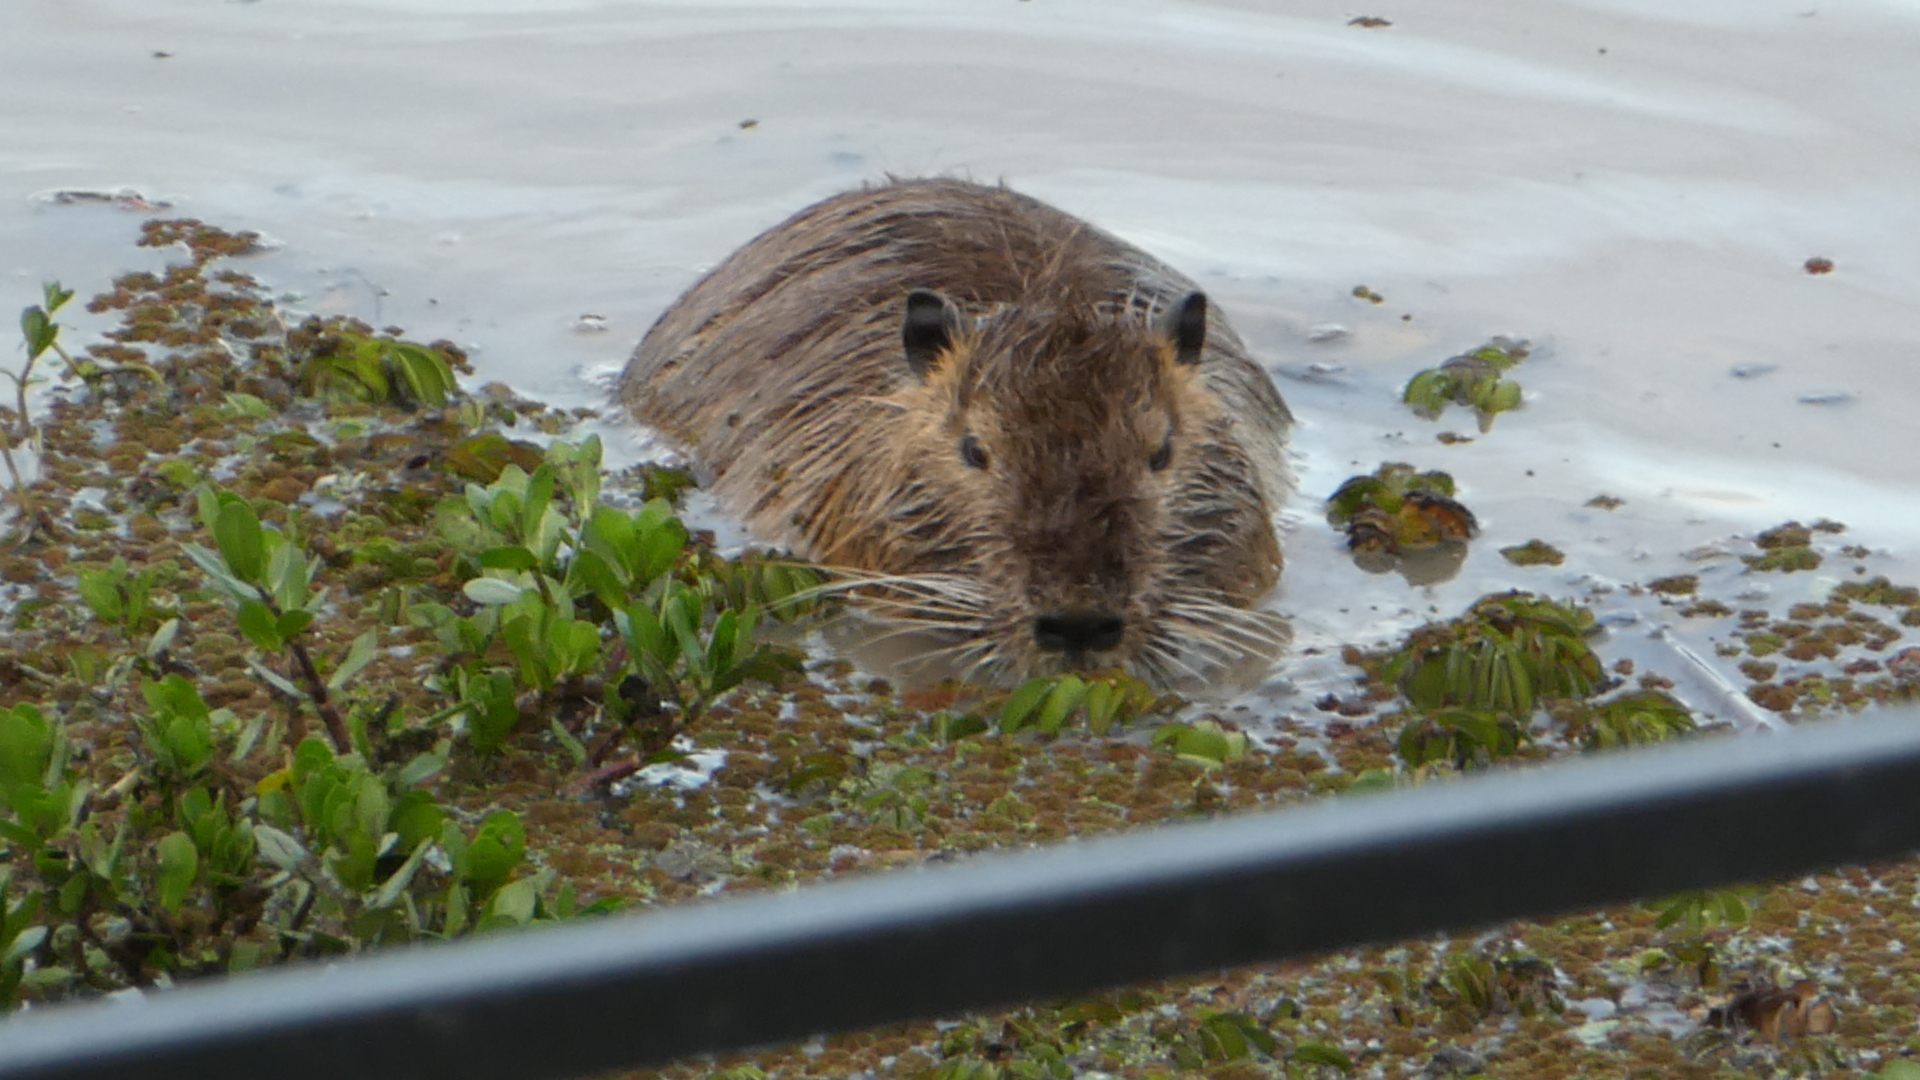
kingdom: Animalia
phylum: Chordata
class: Mammalia
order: Rodentia
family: Myocastoridae
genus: Myocastor
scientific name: Myocastor coypus
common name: Coypu
